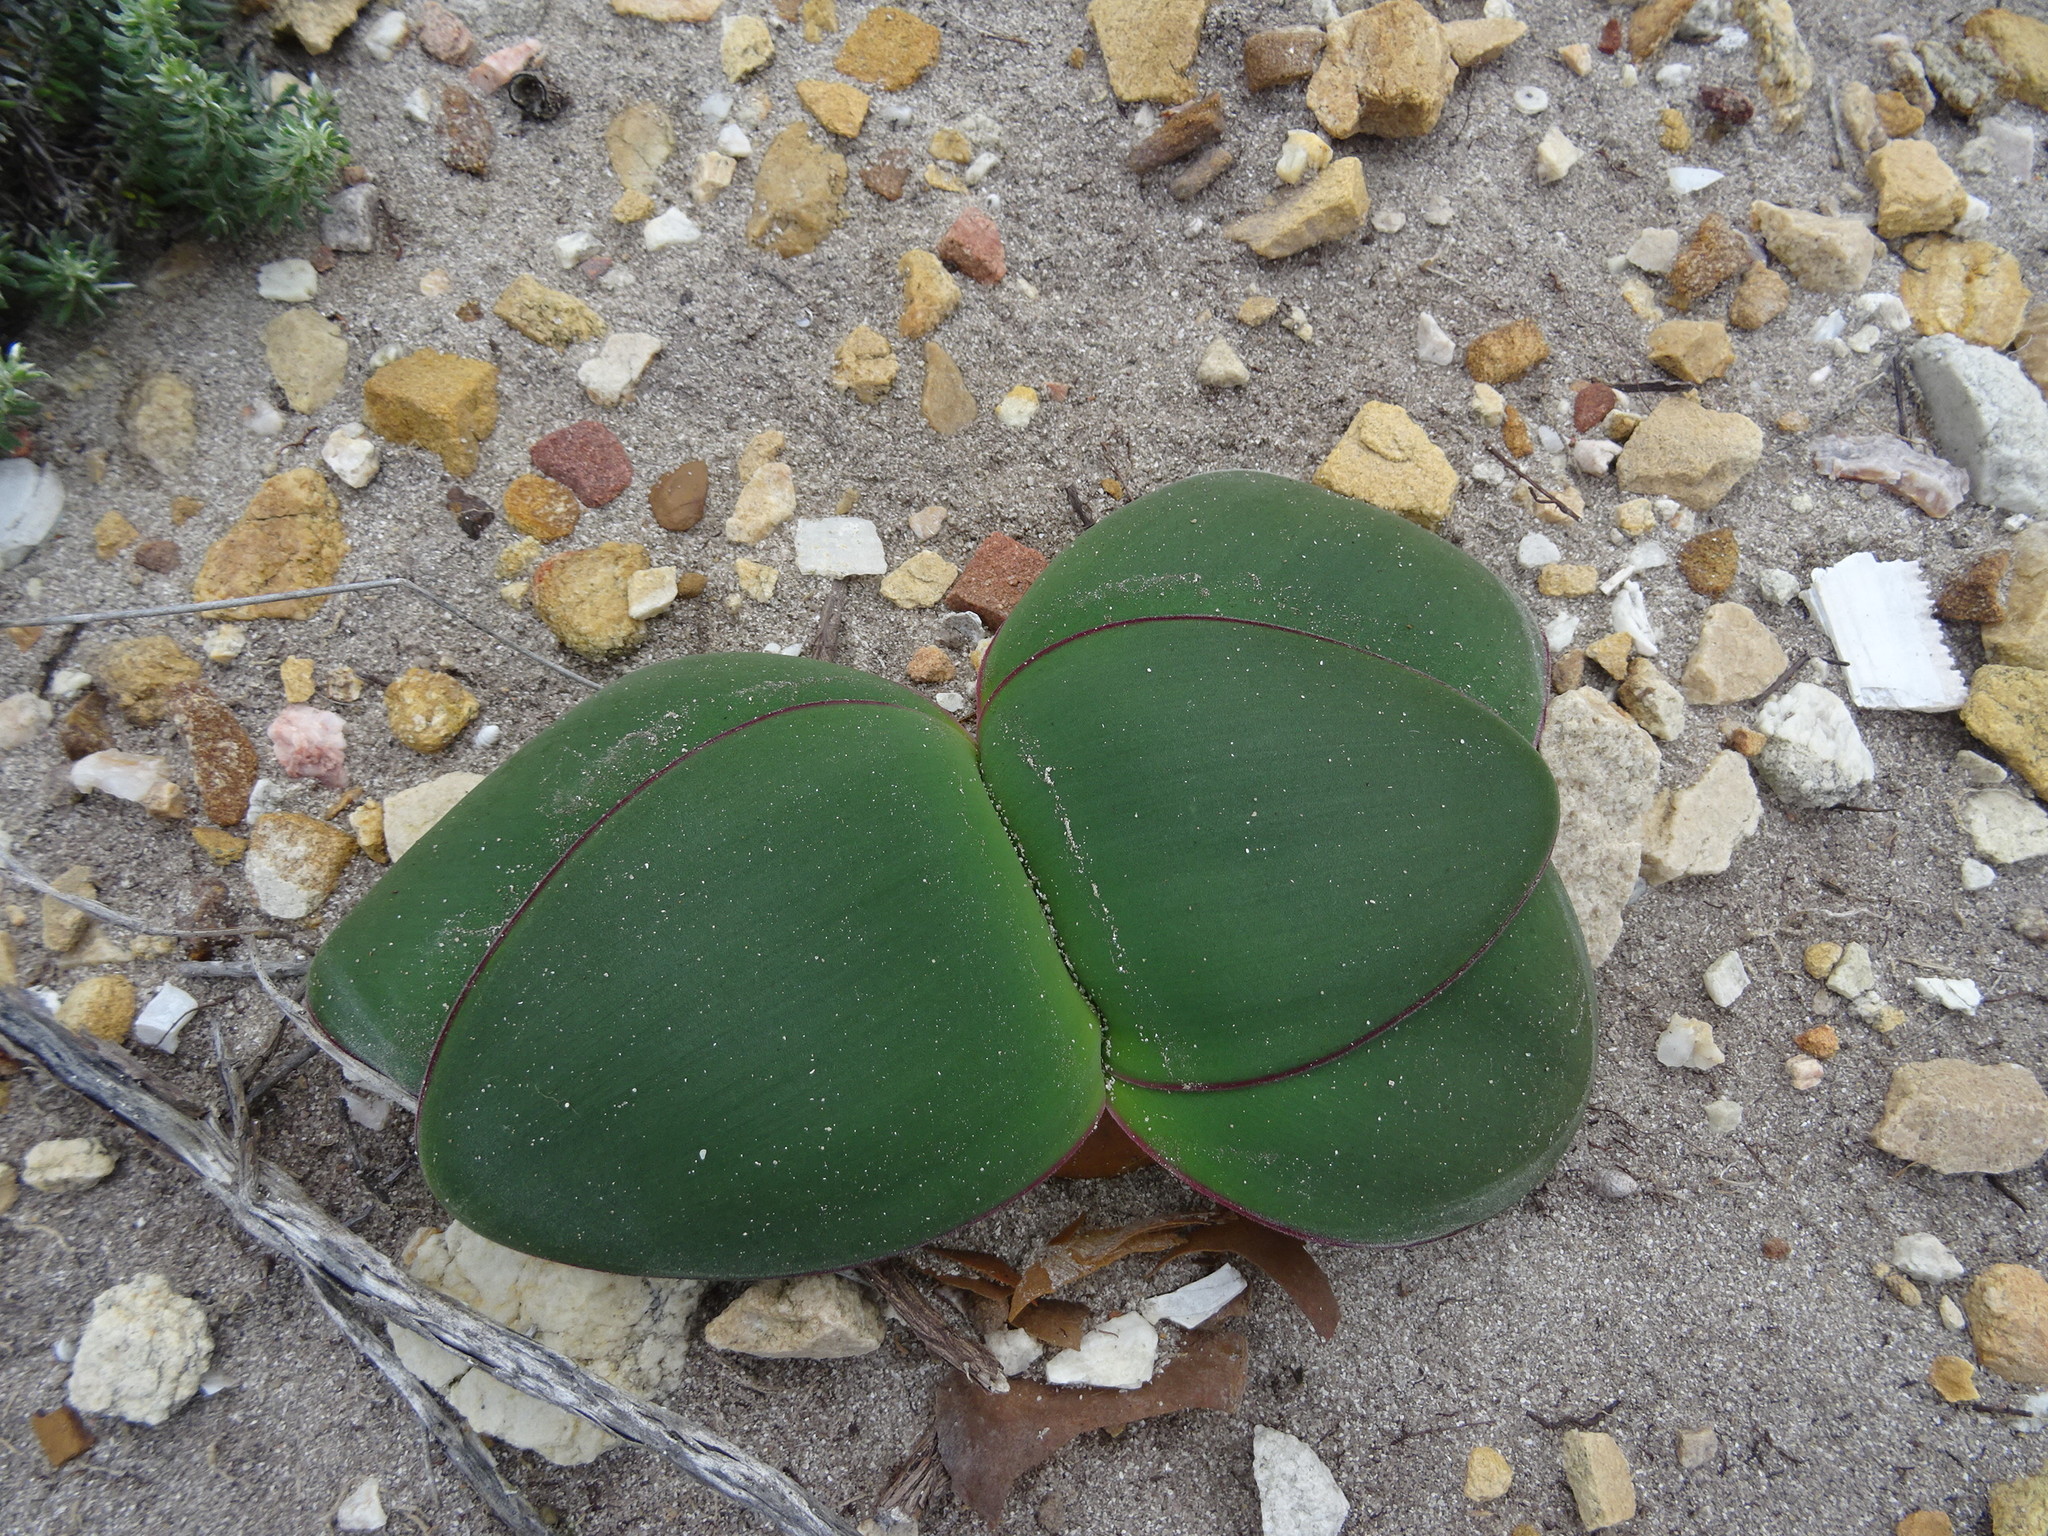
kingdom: Plantae
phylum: Tracheophyta
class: Liliopsida
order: Asparagales
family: Amaryllidaceae
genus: Brunsvigia
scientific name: Brunsvigia orientalis
